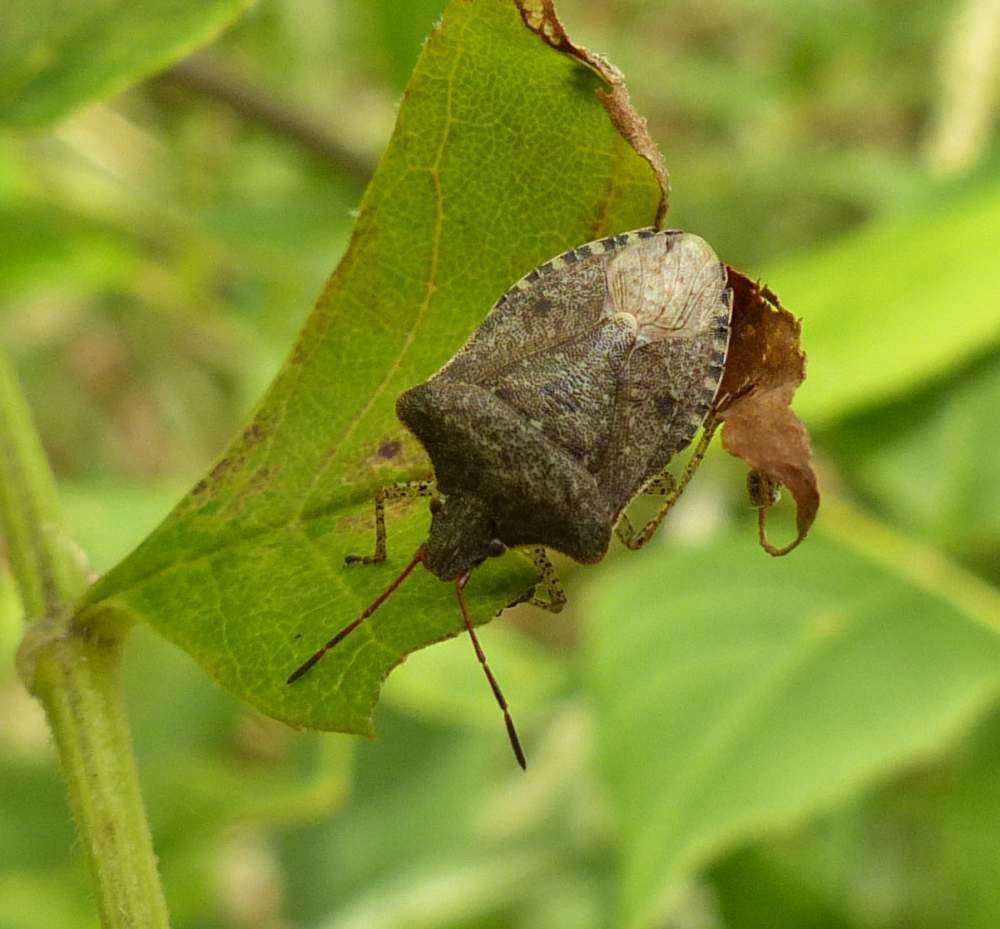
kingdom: Animalia
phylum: Arthropoda
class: Insecta
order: Hemiptera
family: Pentatomidae
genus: Euschistus
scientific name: Euschistus tristigmus
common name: Dusky stink bug
